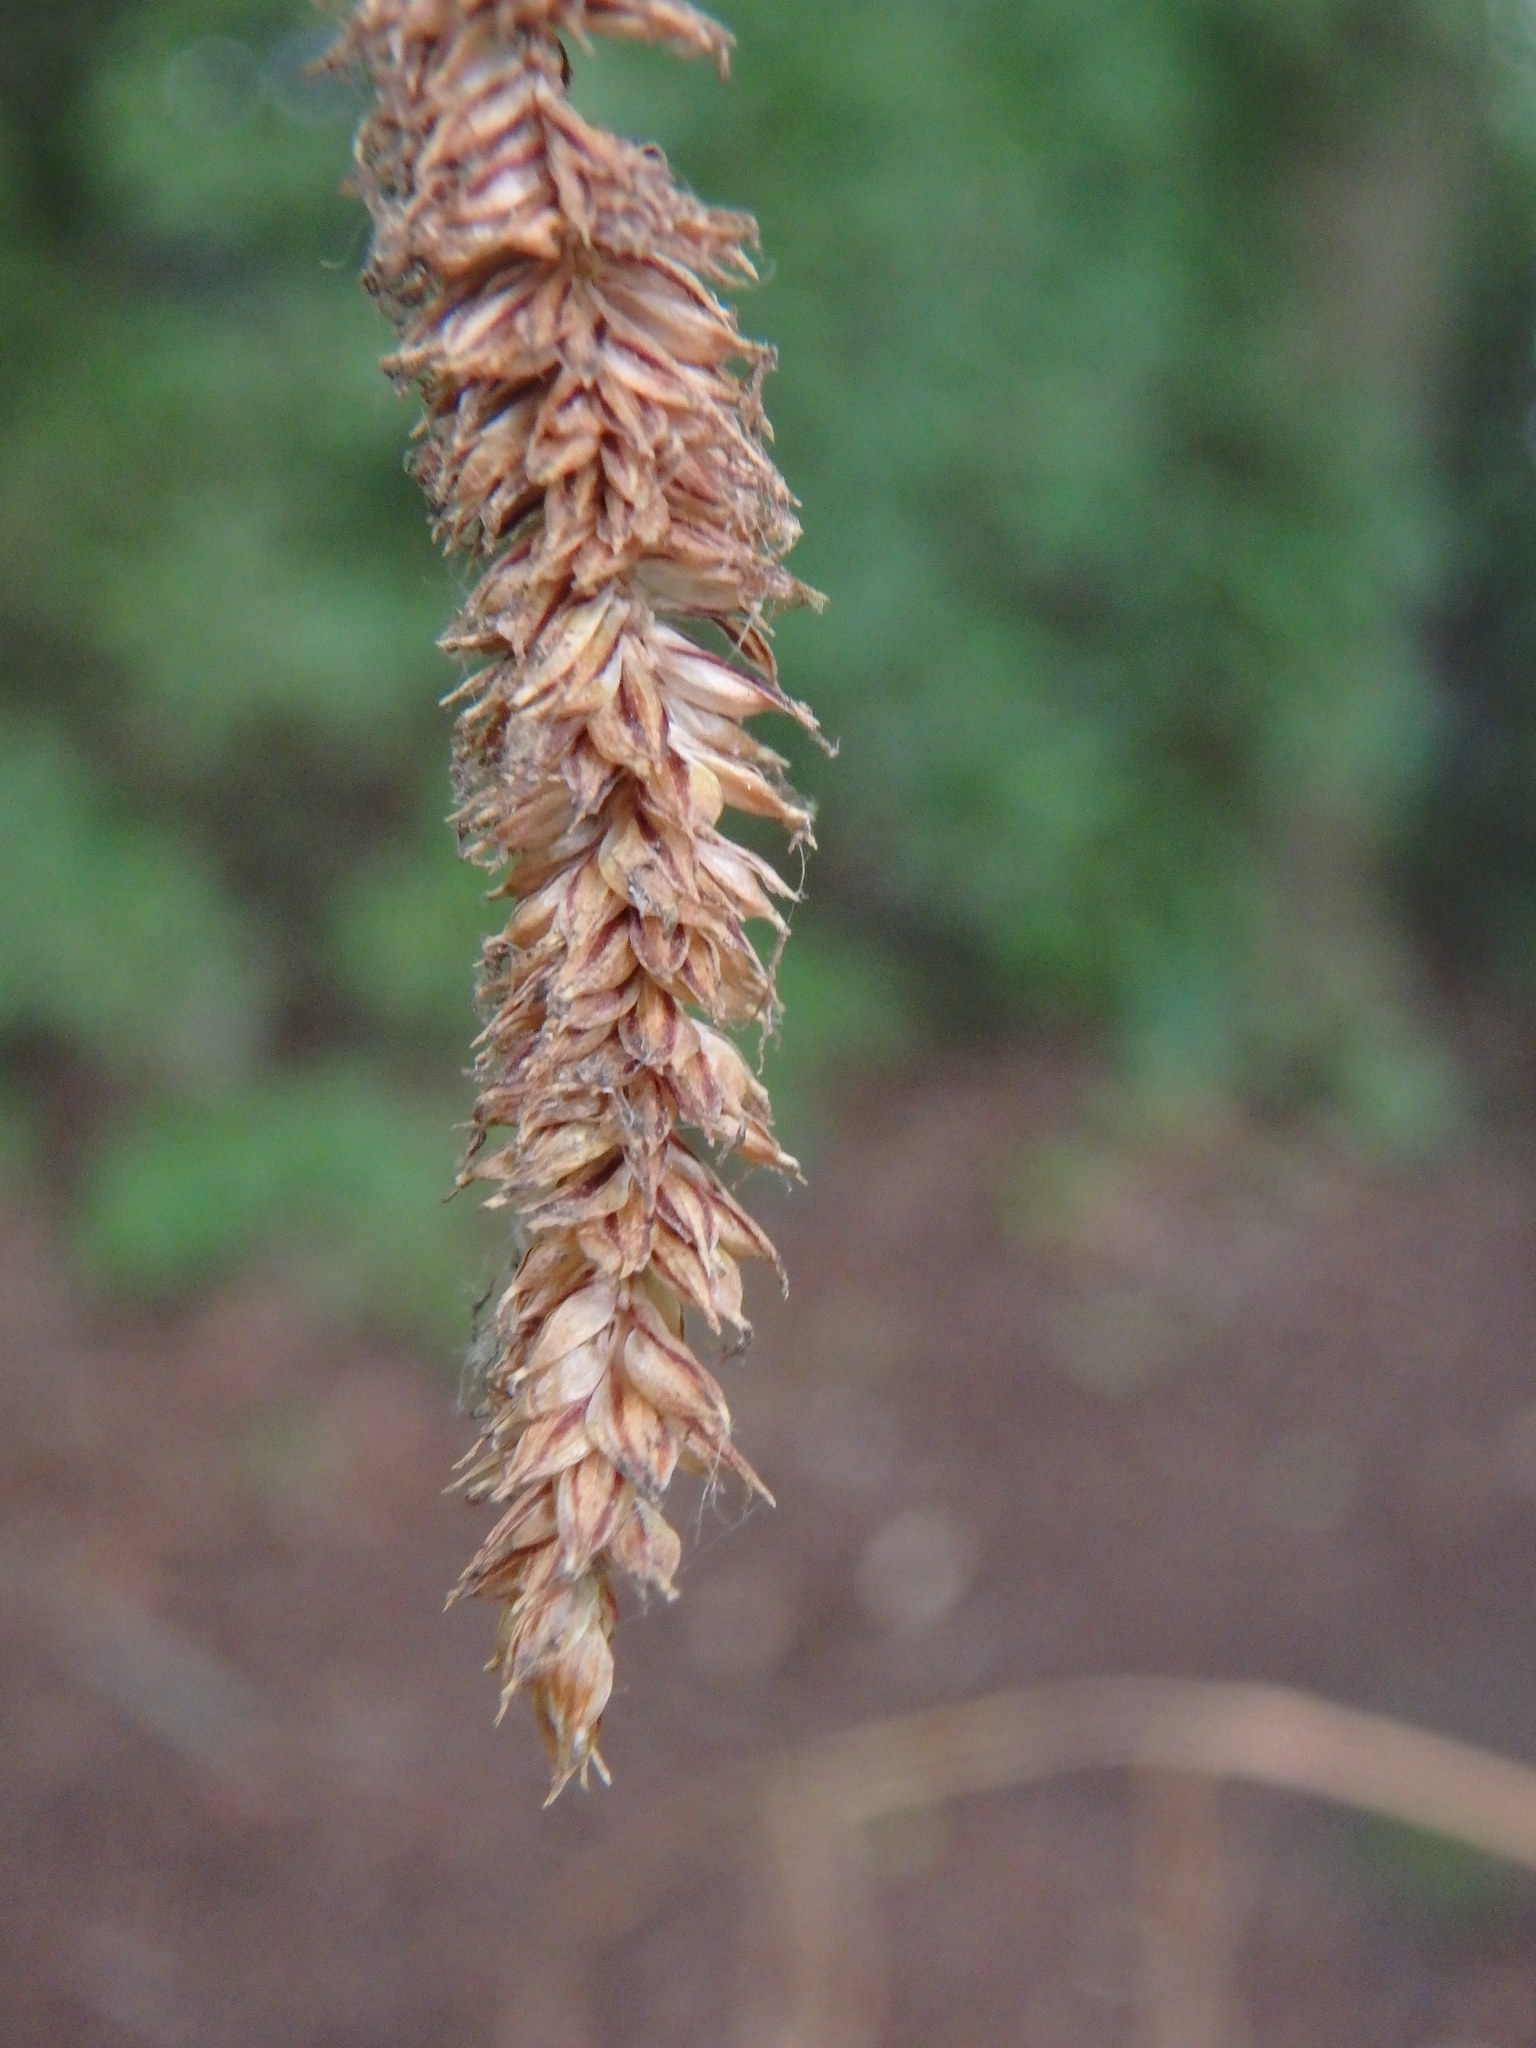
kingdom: Plantae
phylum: Tracheophyta
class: Liliopsida
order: Poales
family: Cyperaceae
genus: Carex
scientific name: Carex pendula
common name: Pendulous sedge
